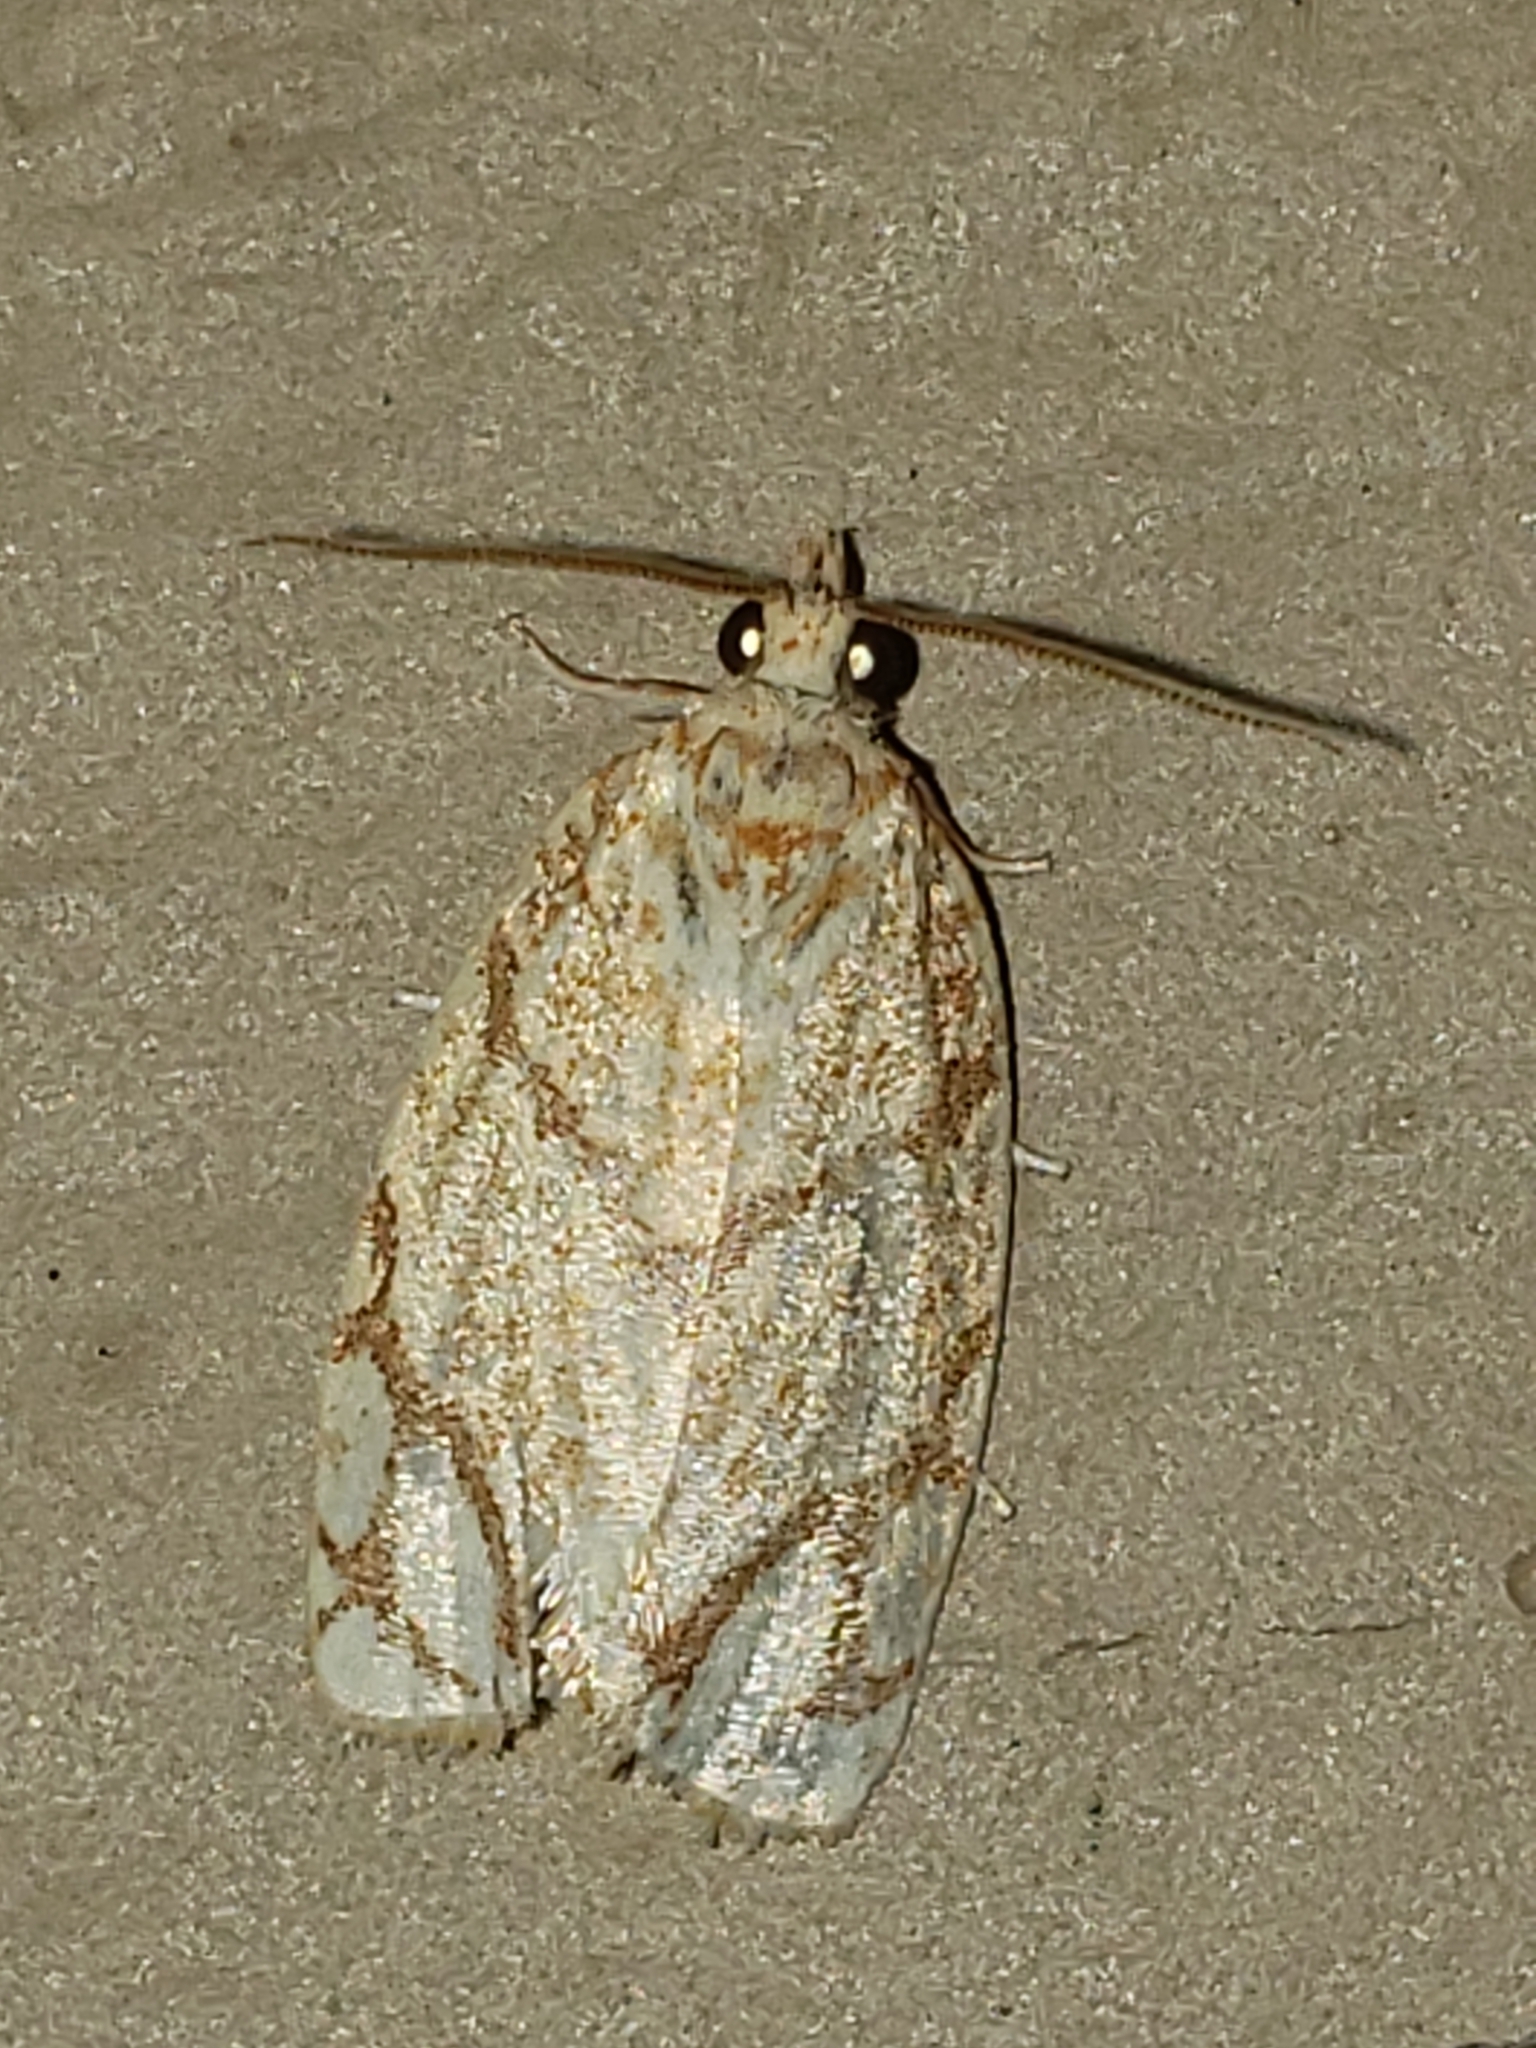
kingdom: Animalia
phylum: Arthropoda
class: Insecta
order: Lepidoptera
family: Tortricidae
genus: Argyrotaenia
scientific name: Argyrotaenia quercifoliana
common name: Yellow-winged oak leafroller moth
